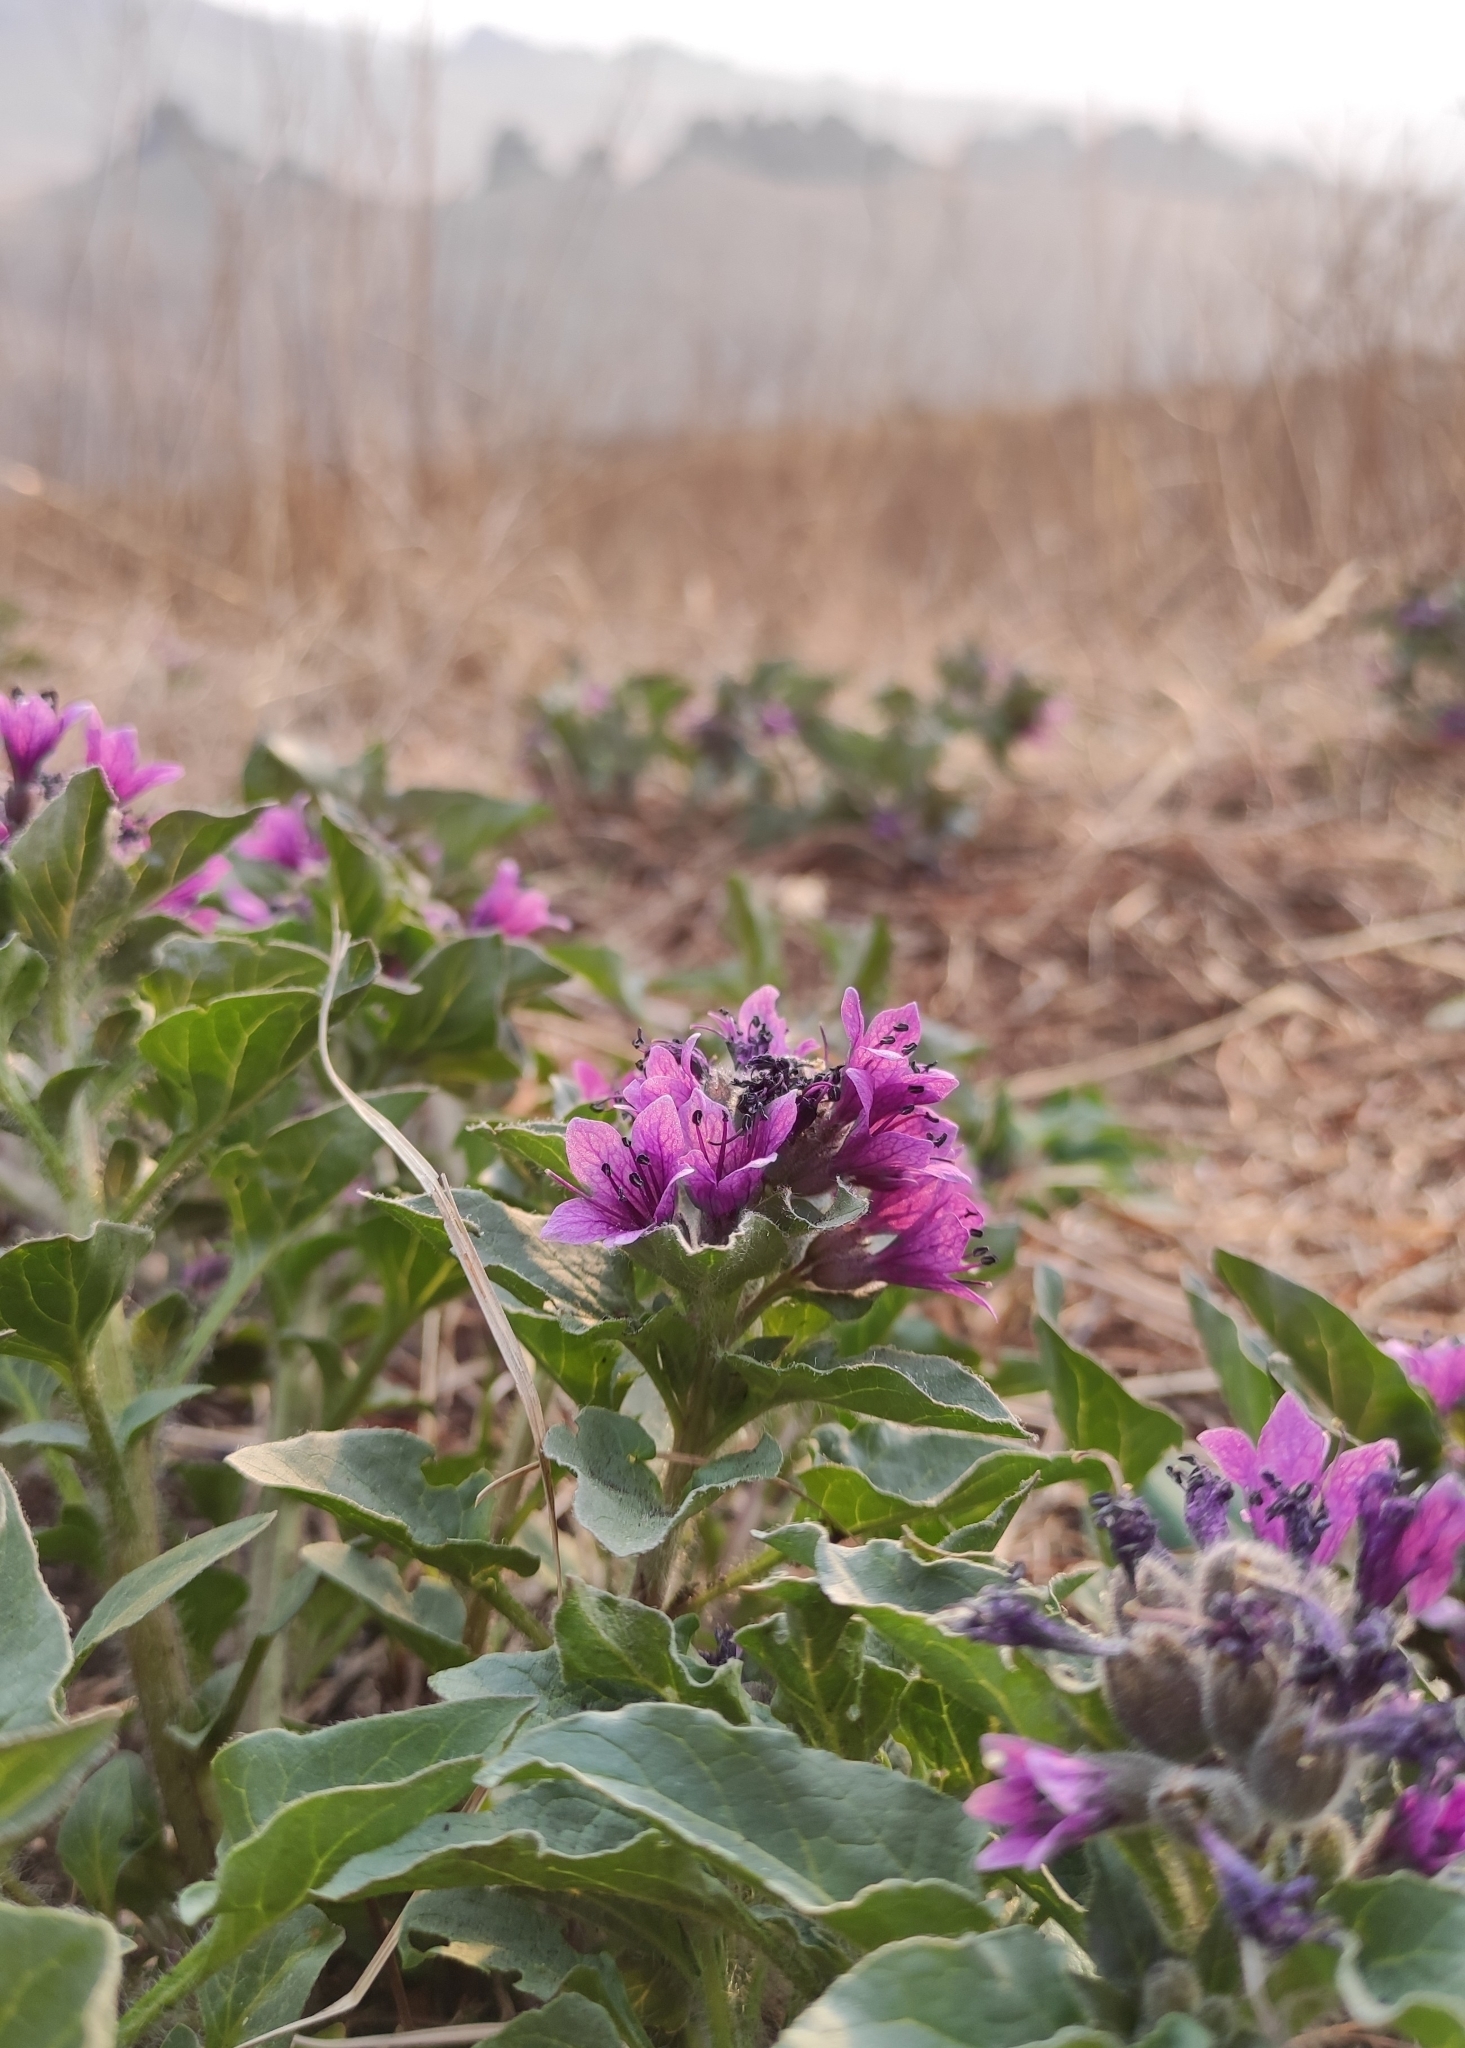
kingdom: Plantae
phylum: Tracheophyta
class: Magnoliopsida
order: Solanales
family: Solanaceae
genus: Physochlaina
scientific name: Physochlaina physaloides
